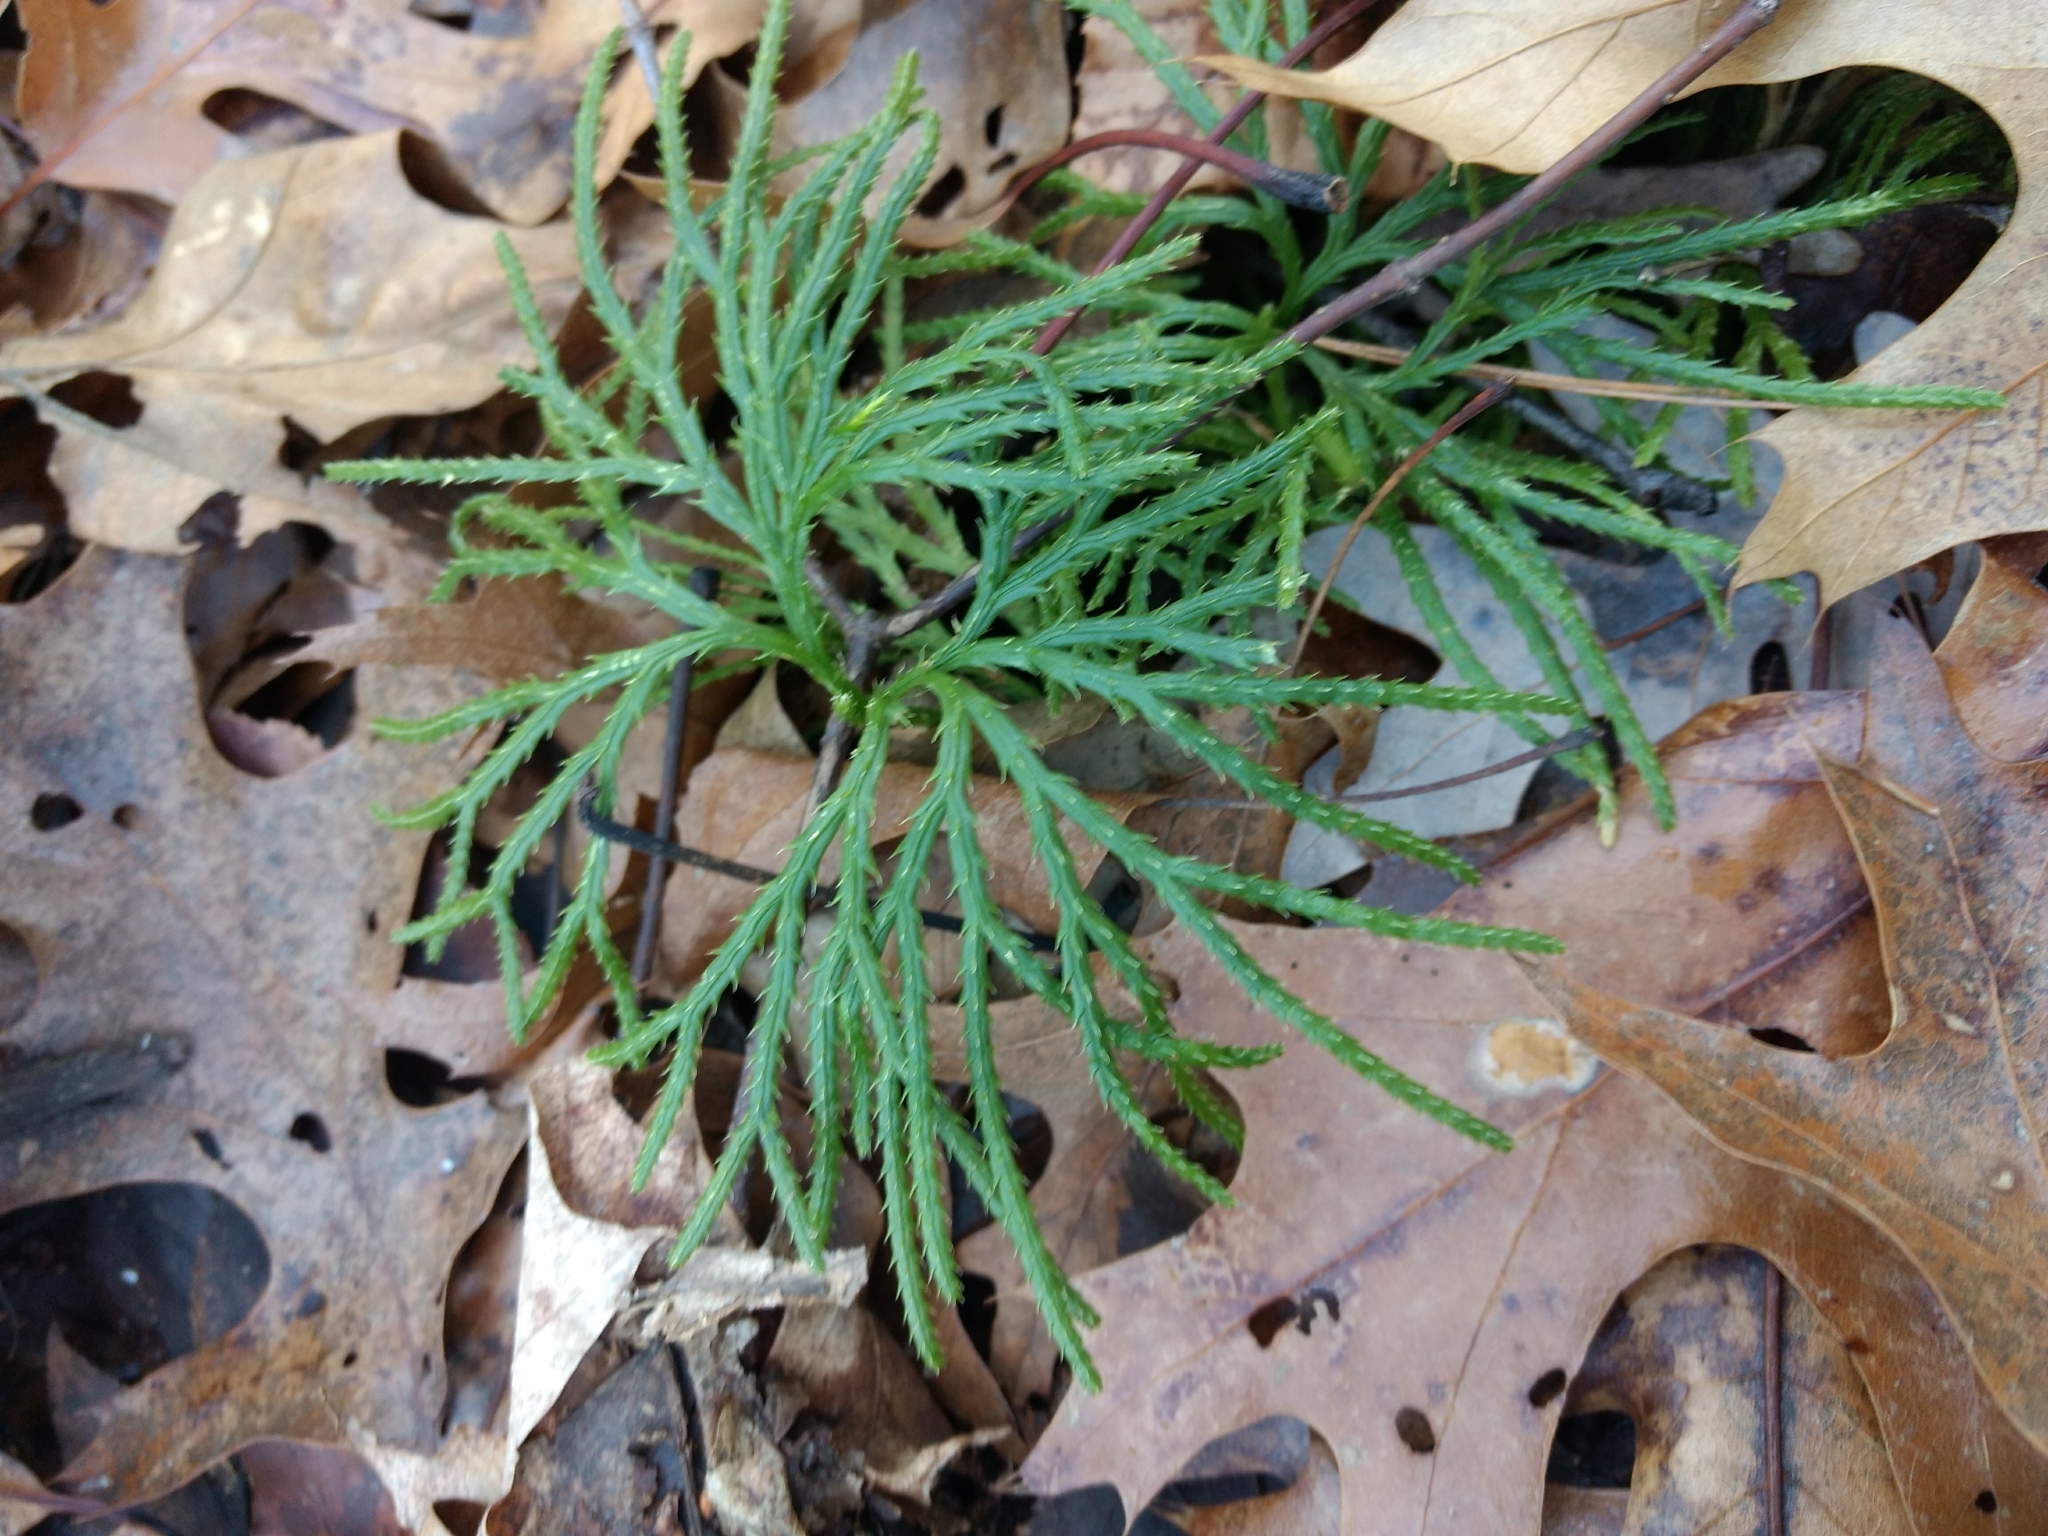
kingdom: Plantae
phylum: Tracheophyta
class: Lycopodiopsida
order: Lycopodiales
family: Lycopodiaceae
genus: Diphasiastrum
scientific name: Diphasiastrum digitatum
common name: Southern running-pine
